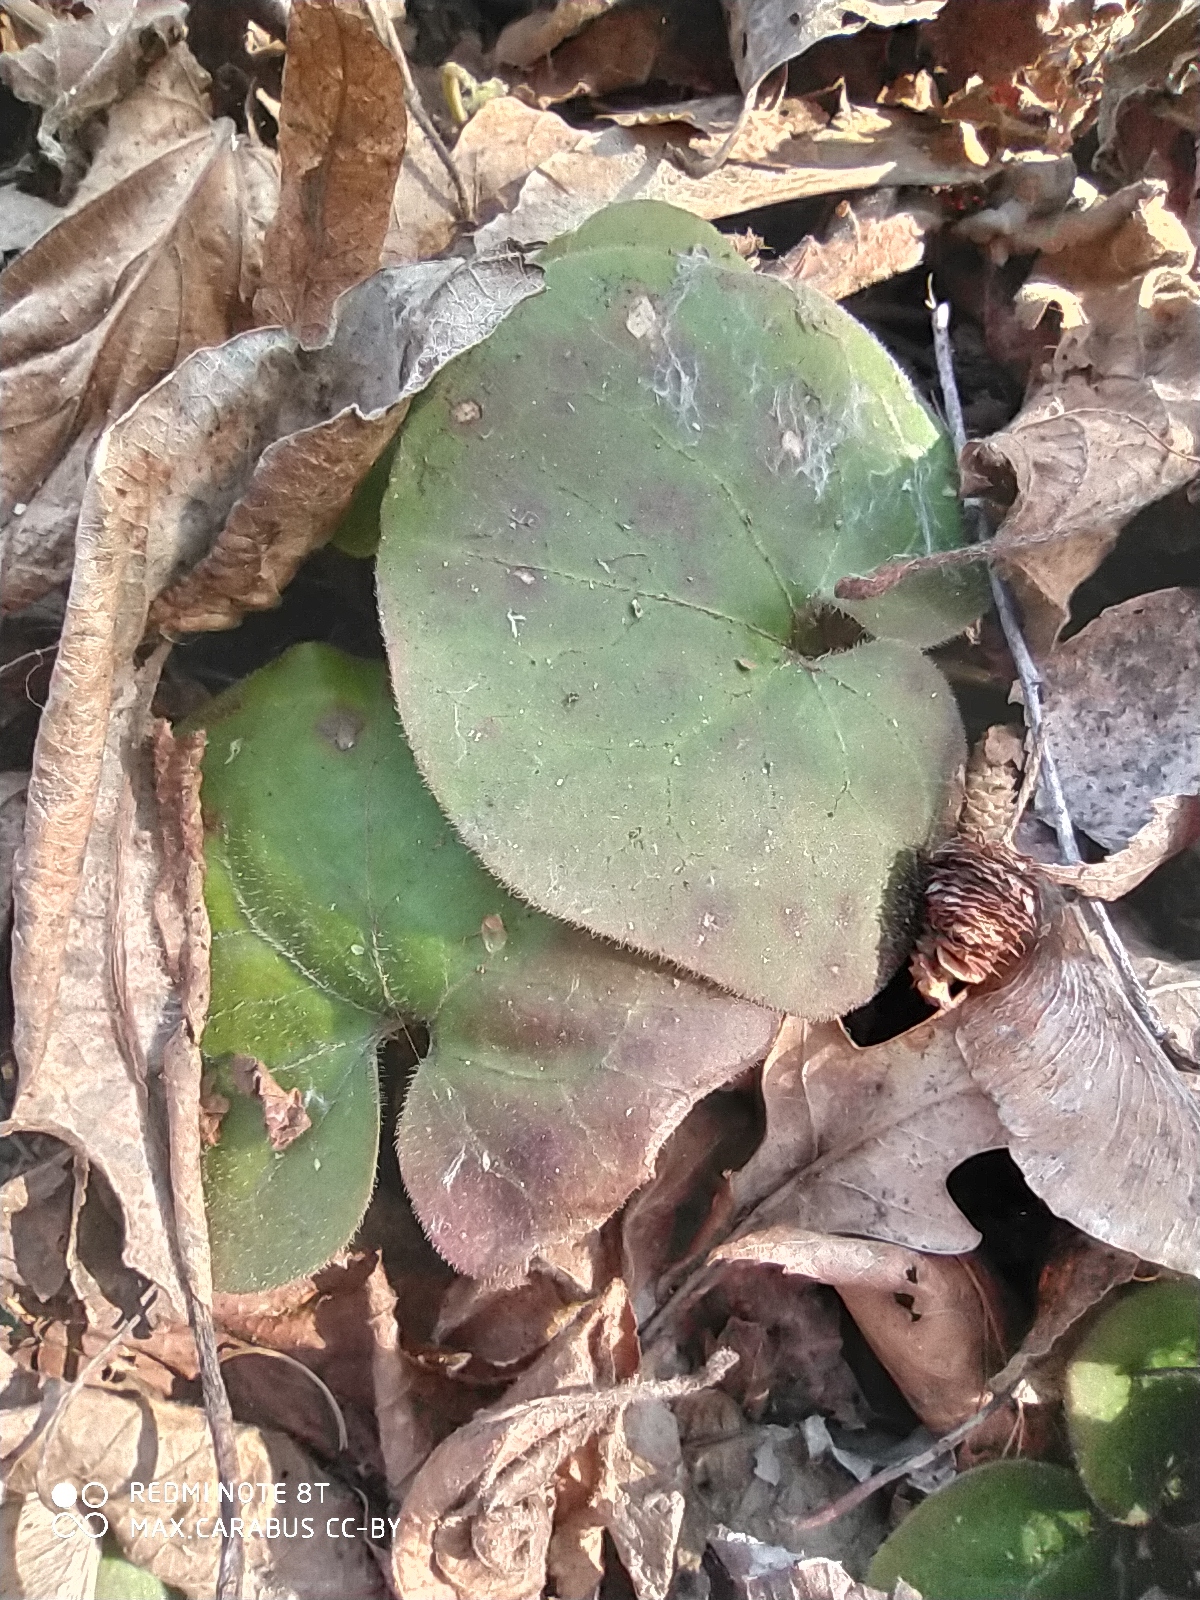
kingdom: Plantae
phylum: Tracheophyta
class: Magnoliopsida
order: Piperales
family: Aristolochiaceae
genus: Asarum
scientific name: Asarum europaeum
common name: Asarabacca
